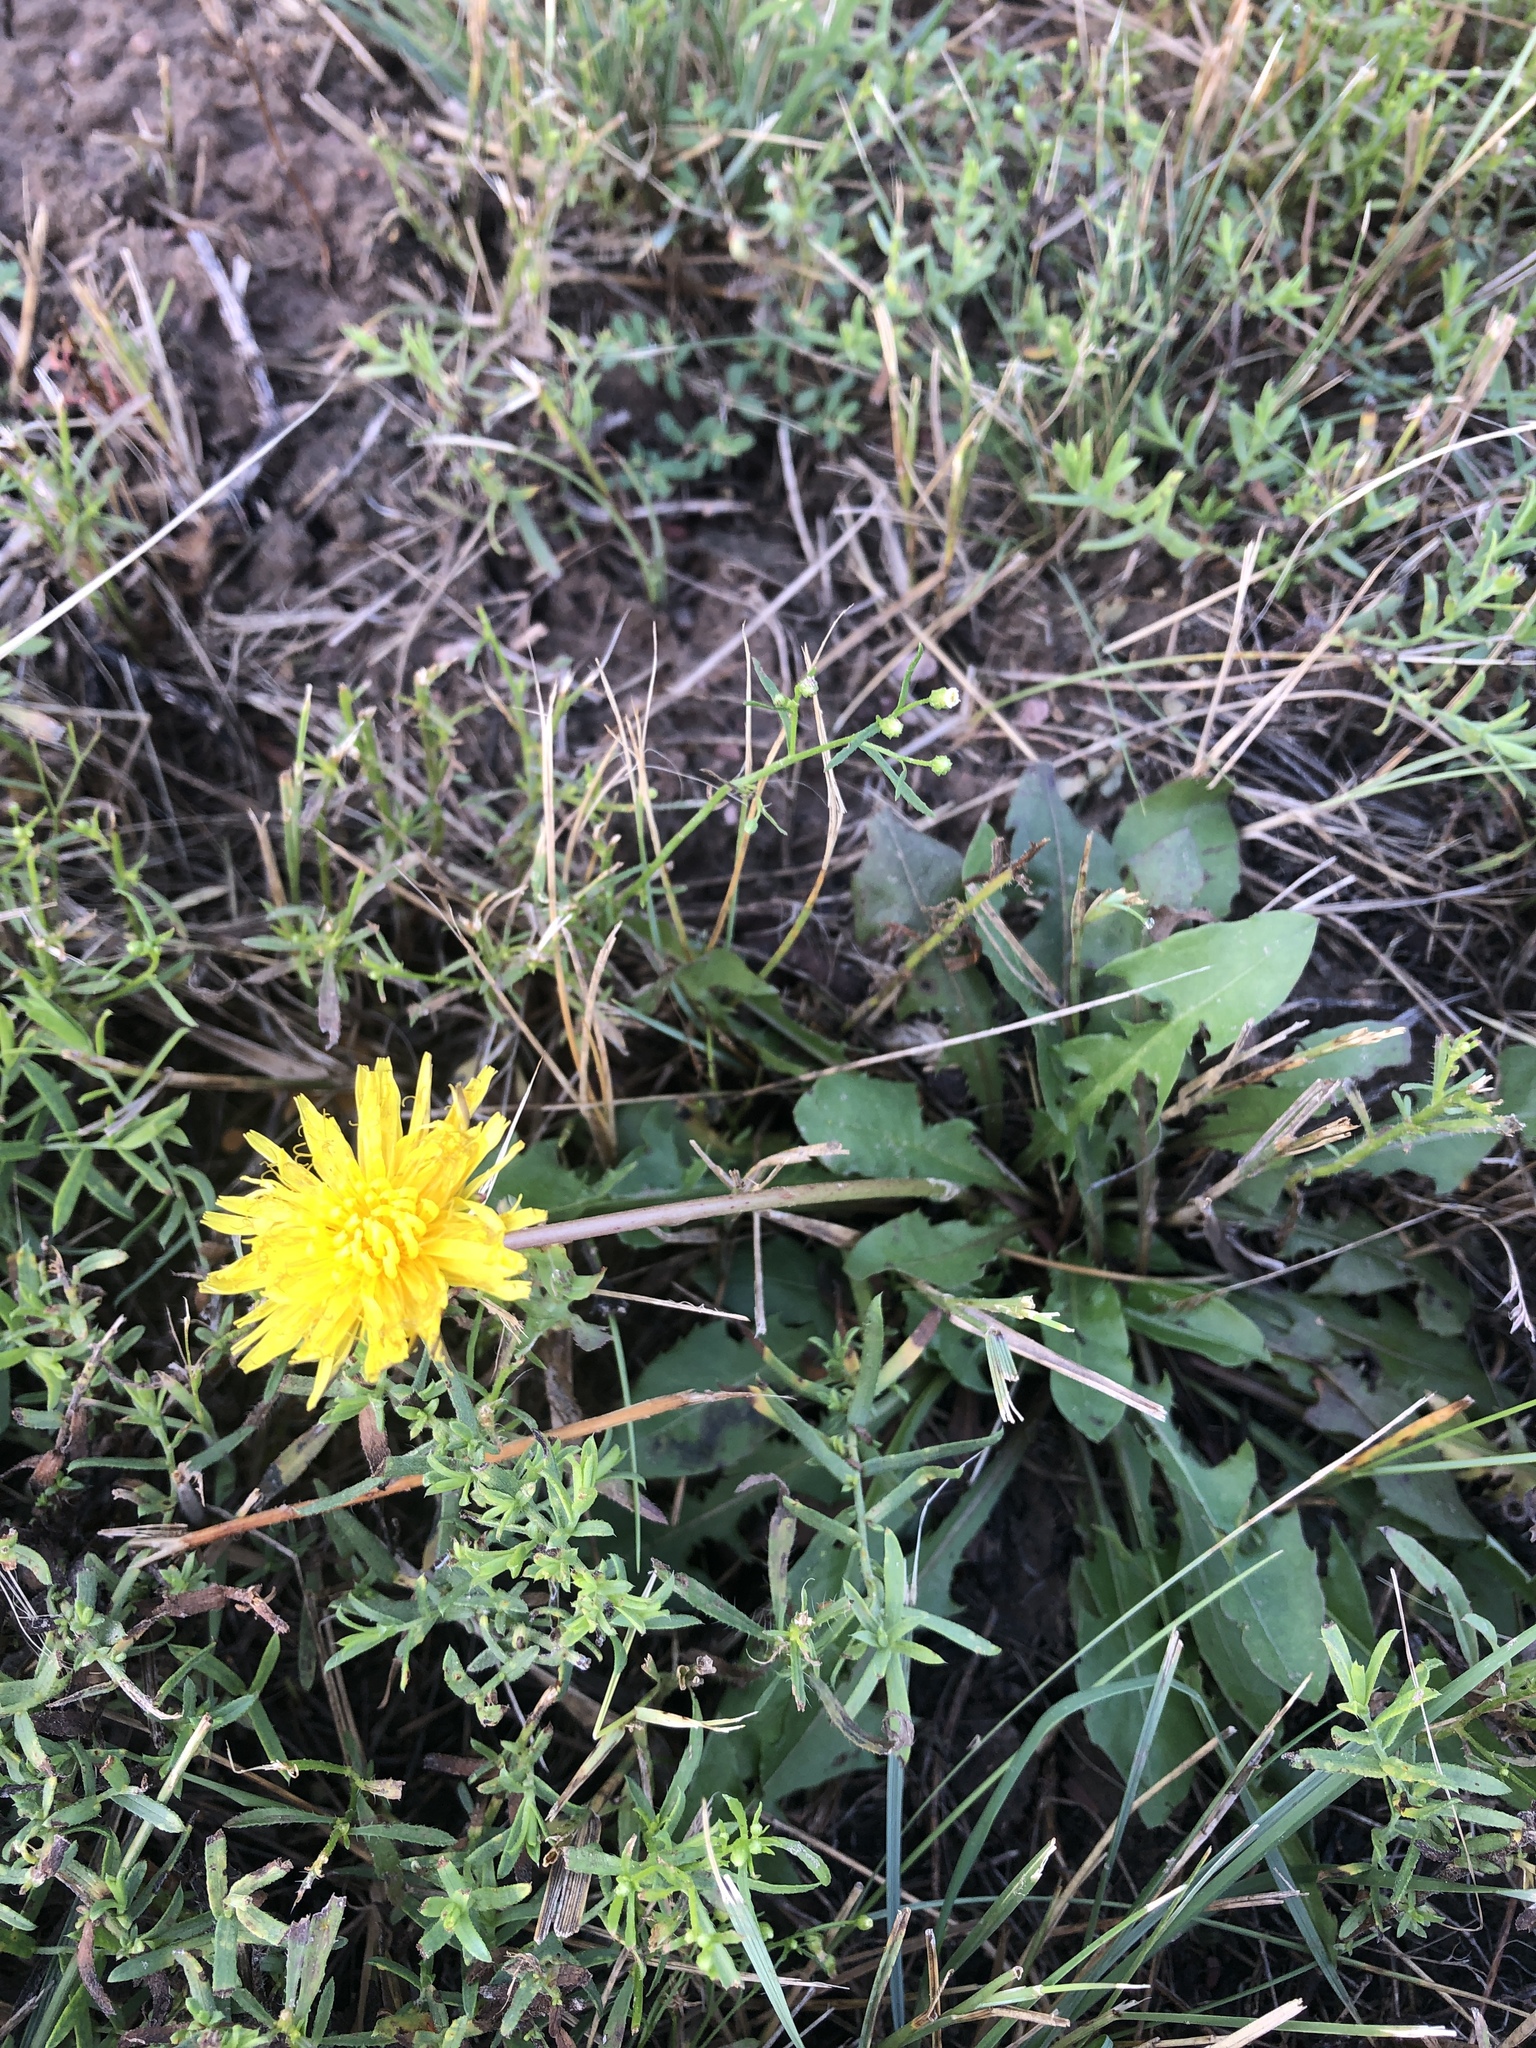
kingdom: Plantae
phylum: Tracheophyta
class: Magnoliopsida
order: Asterales
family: Asteraceae
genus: Taraxacum
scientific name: Taraxacum
